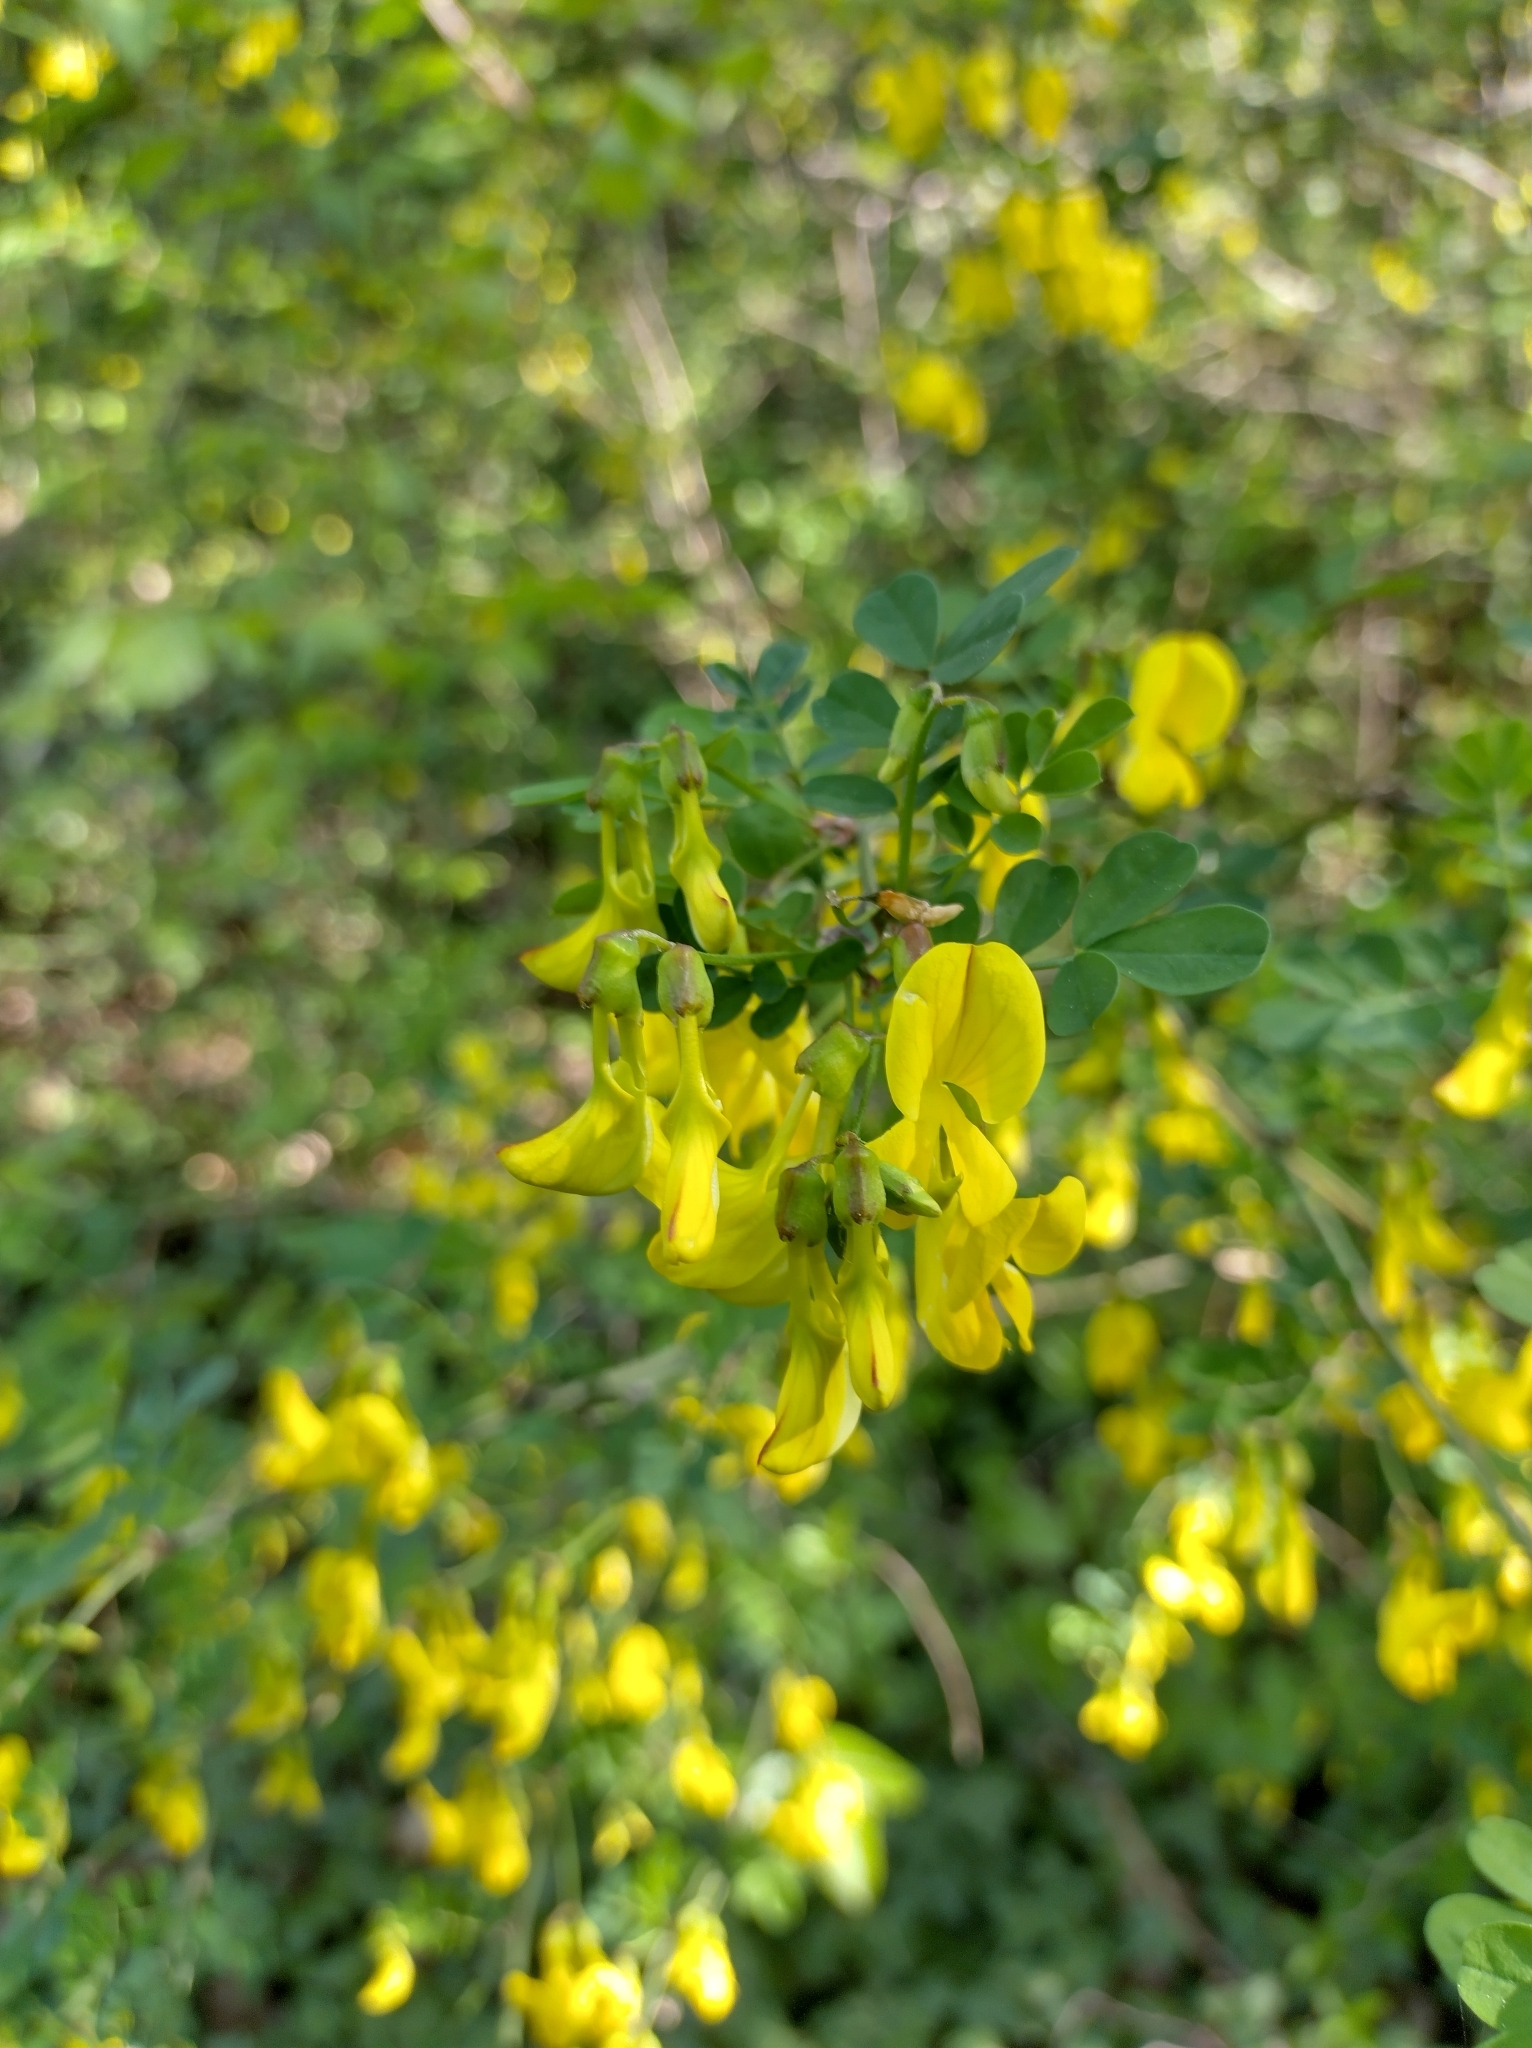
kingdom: Plantae
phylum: Tracheophyta
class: Magnoliopsida
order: Fabales
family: Fabaceae
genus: Hippocrepis
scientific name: Hippocrepis emerus
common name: Scorpion senna
